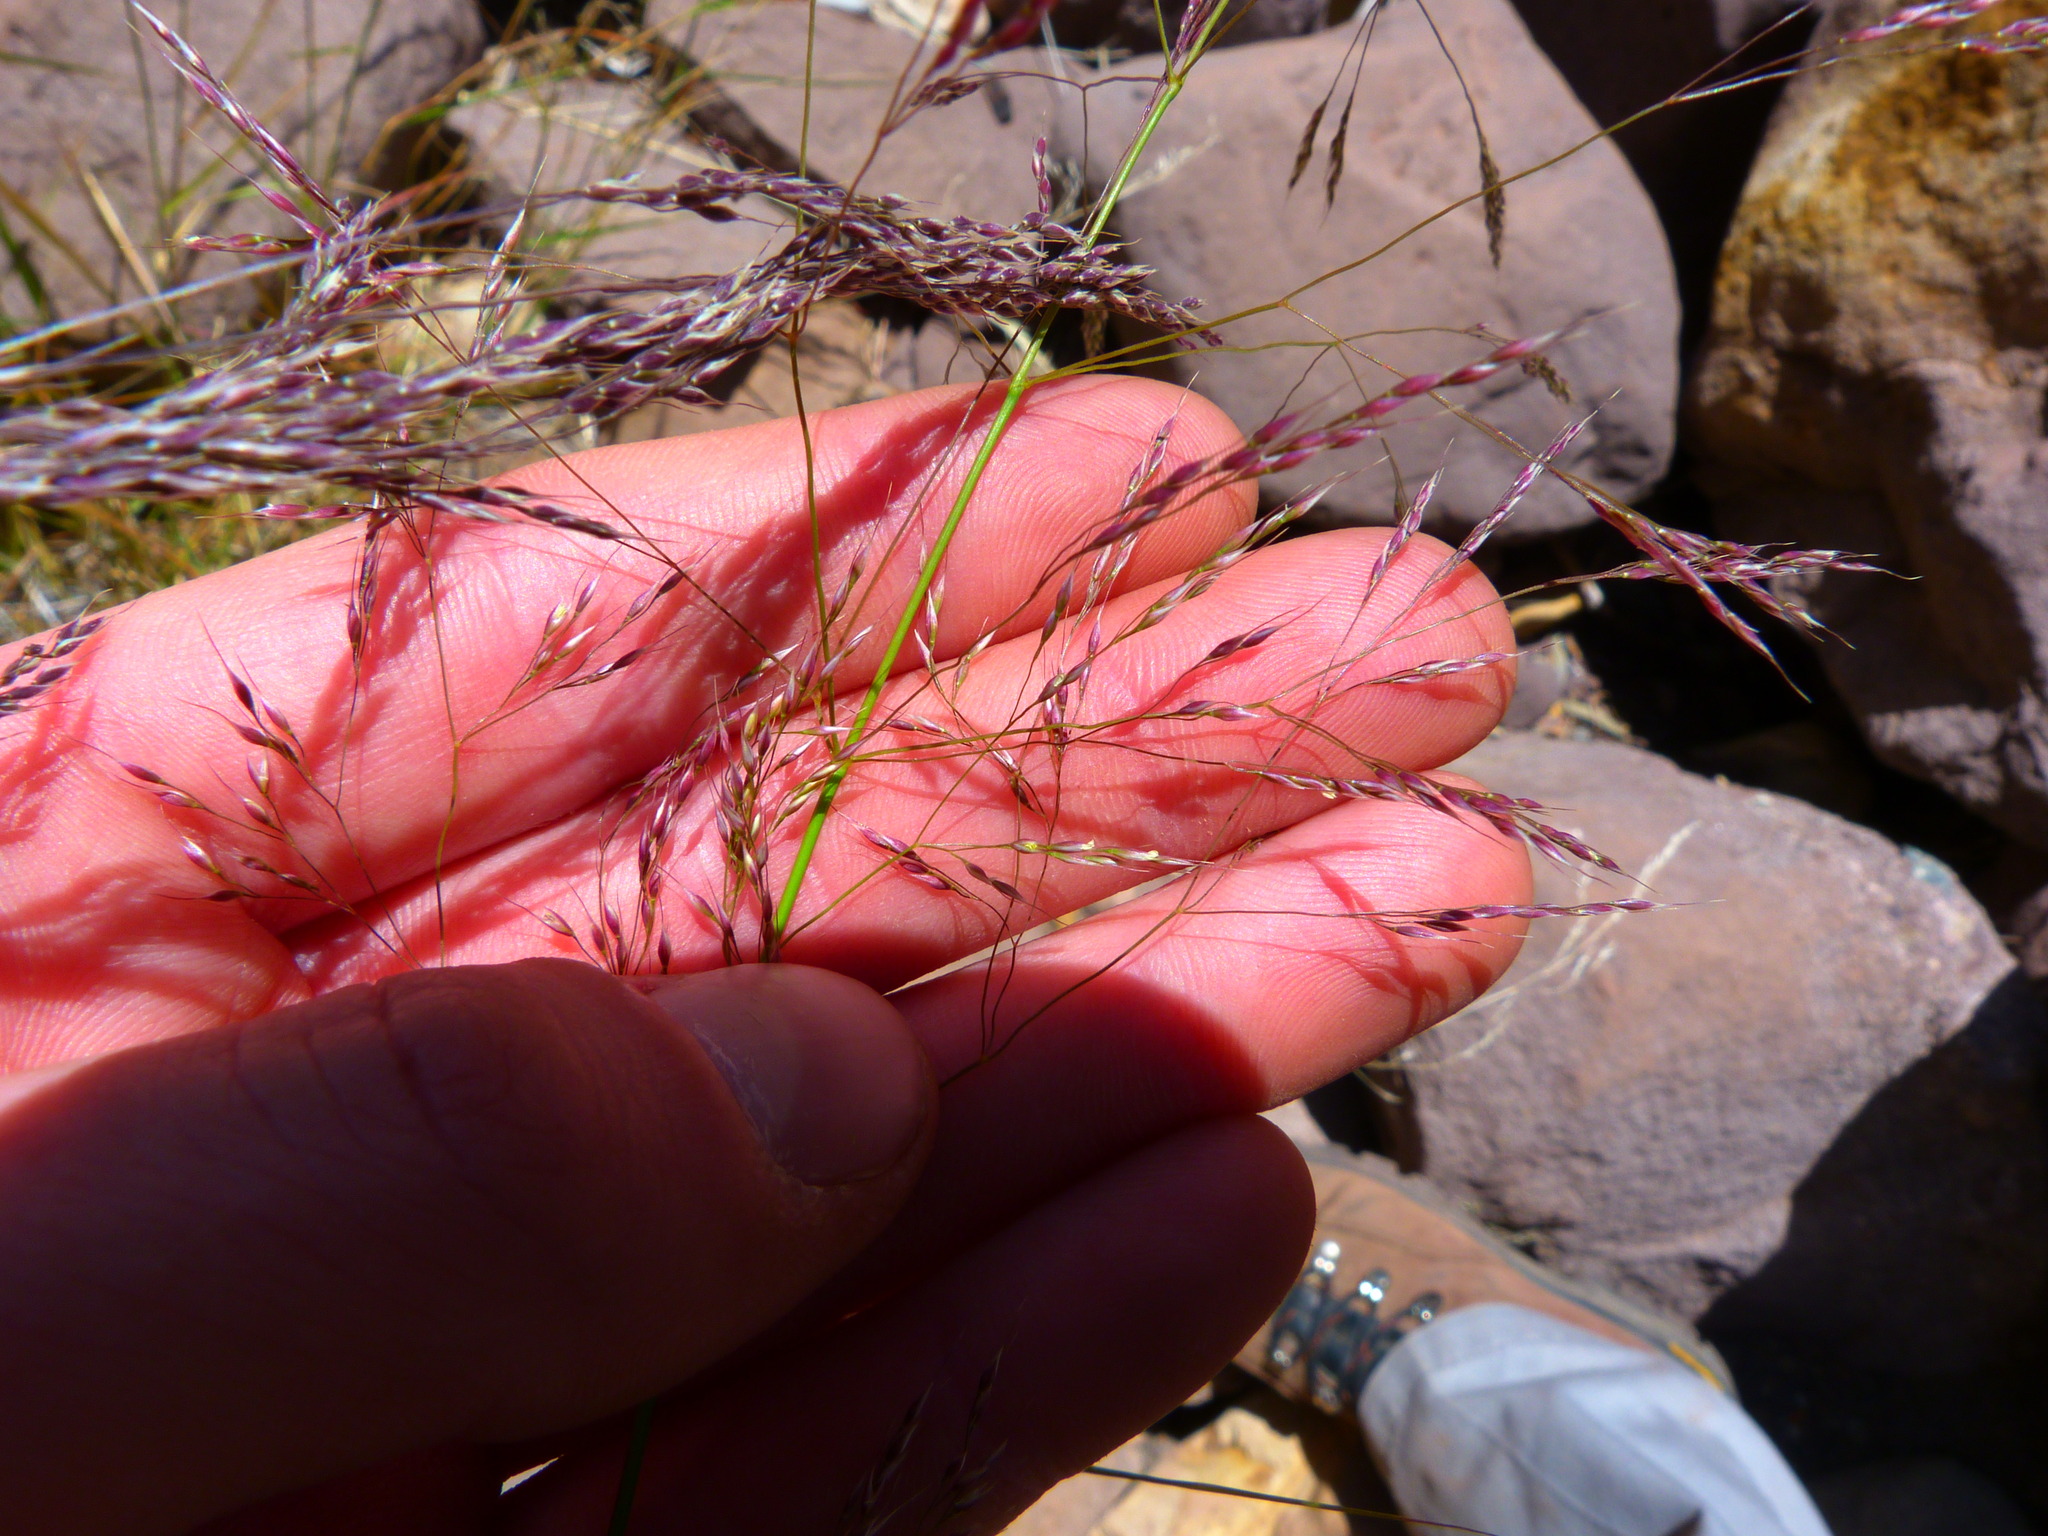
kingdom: Plantae
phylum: Tracheophyta
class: Liliopsida
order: Poales
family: Poaceae
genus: Oloptum
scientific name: Oloptum miliaceum
